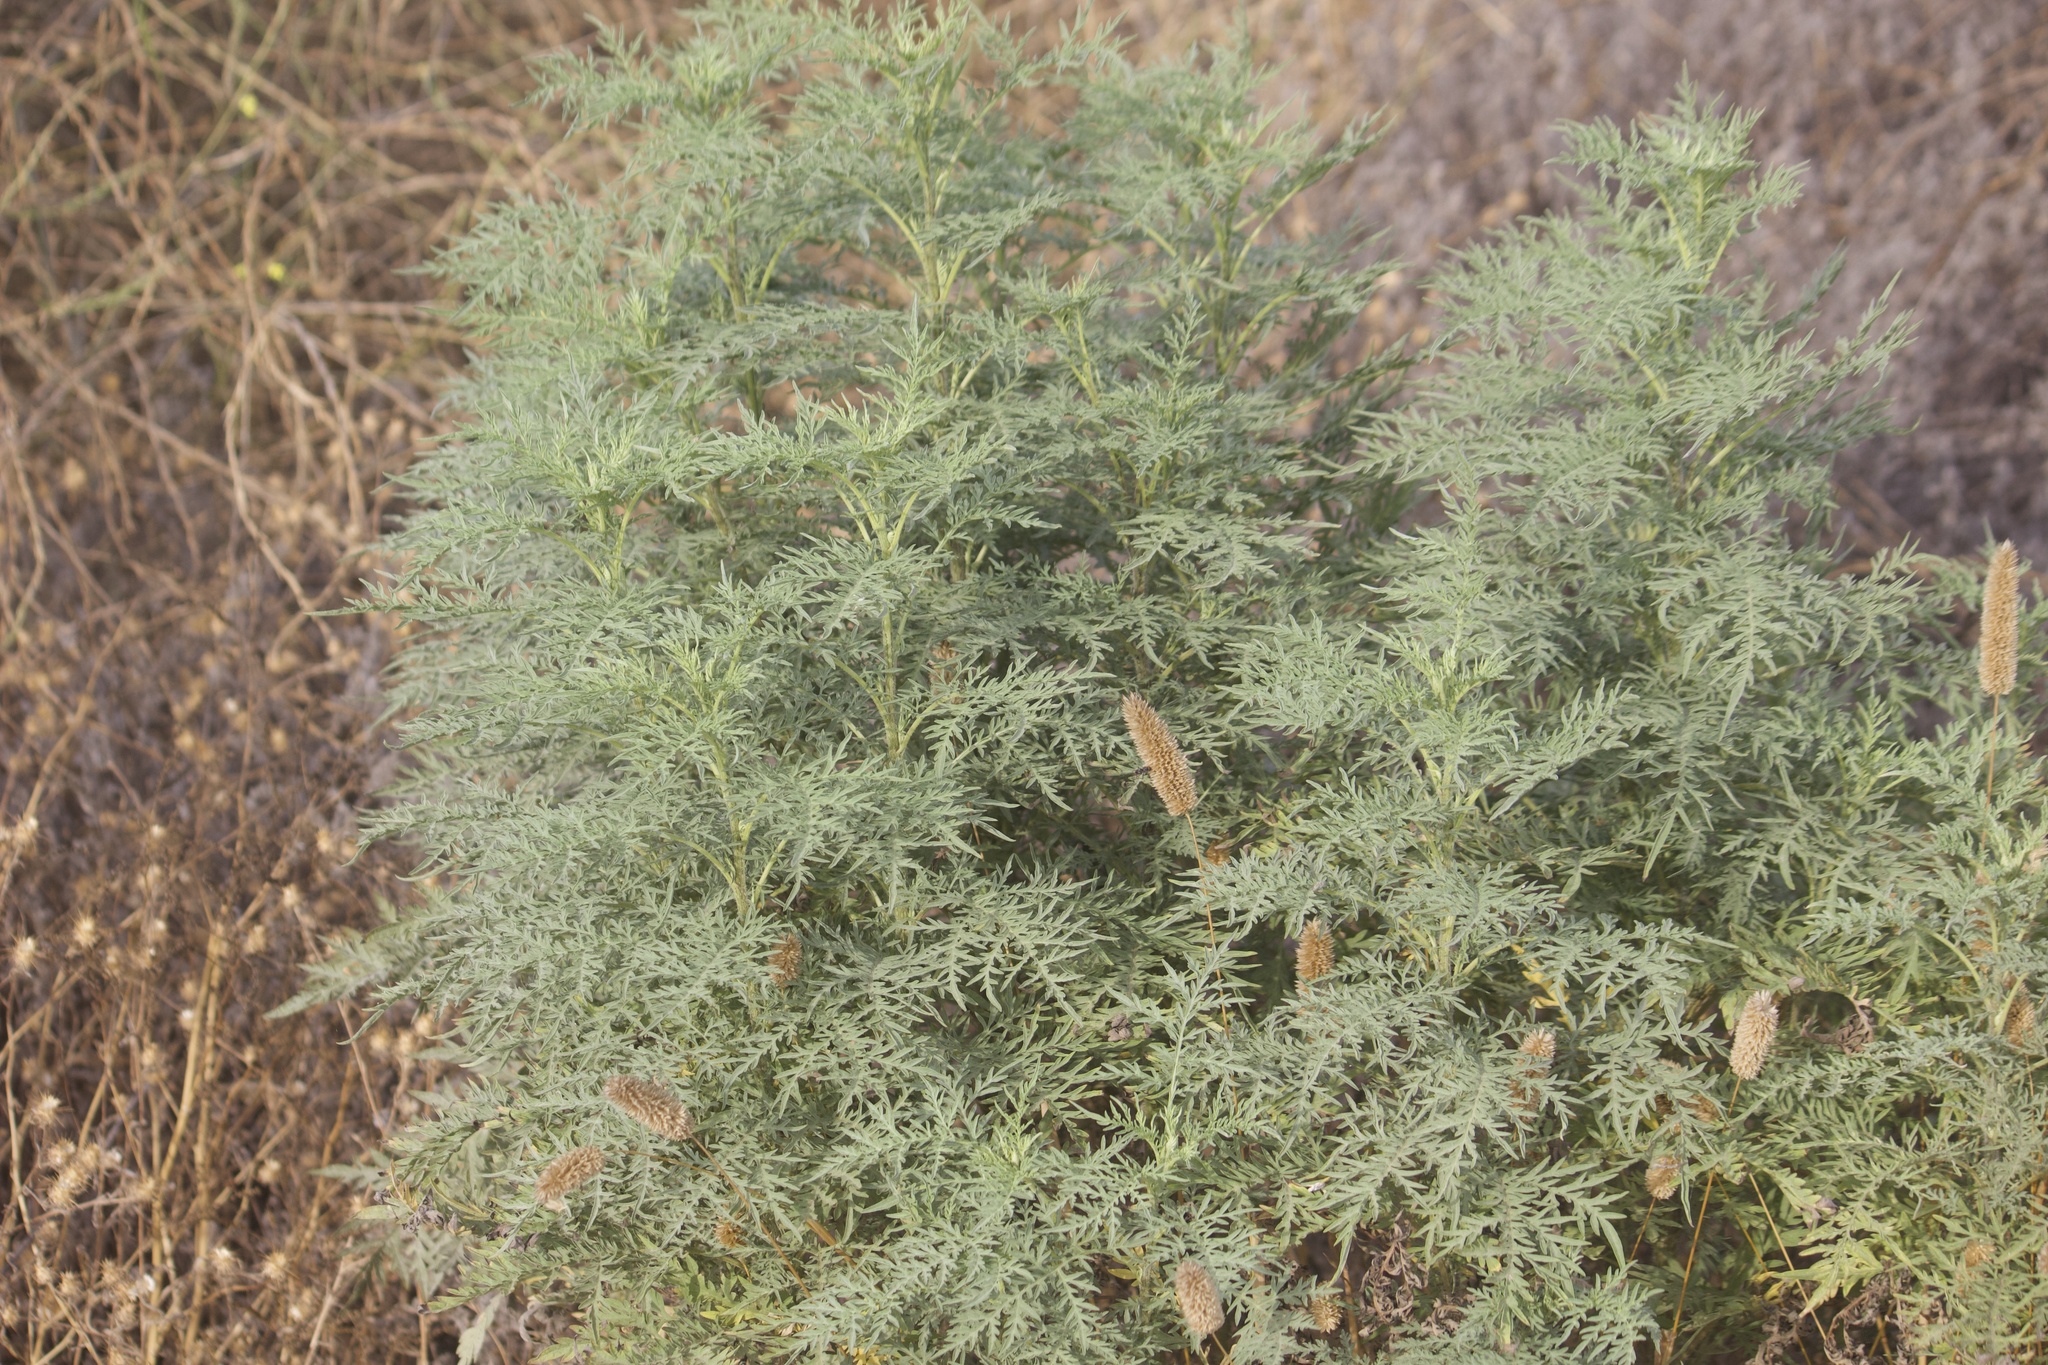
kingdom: Plantae
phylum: Tracheophyta
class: Magnoliopsida
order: Asterales
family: Asteraceae
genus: Ambrosia
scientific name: Ambrosia confertiflora
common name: Bur ragweed
